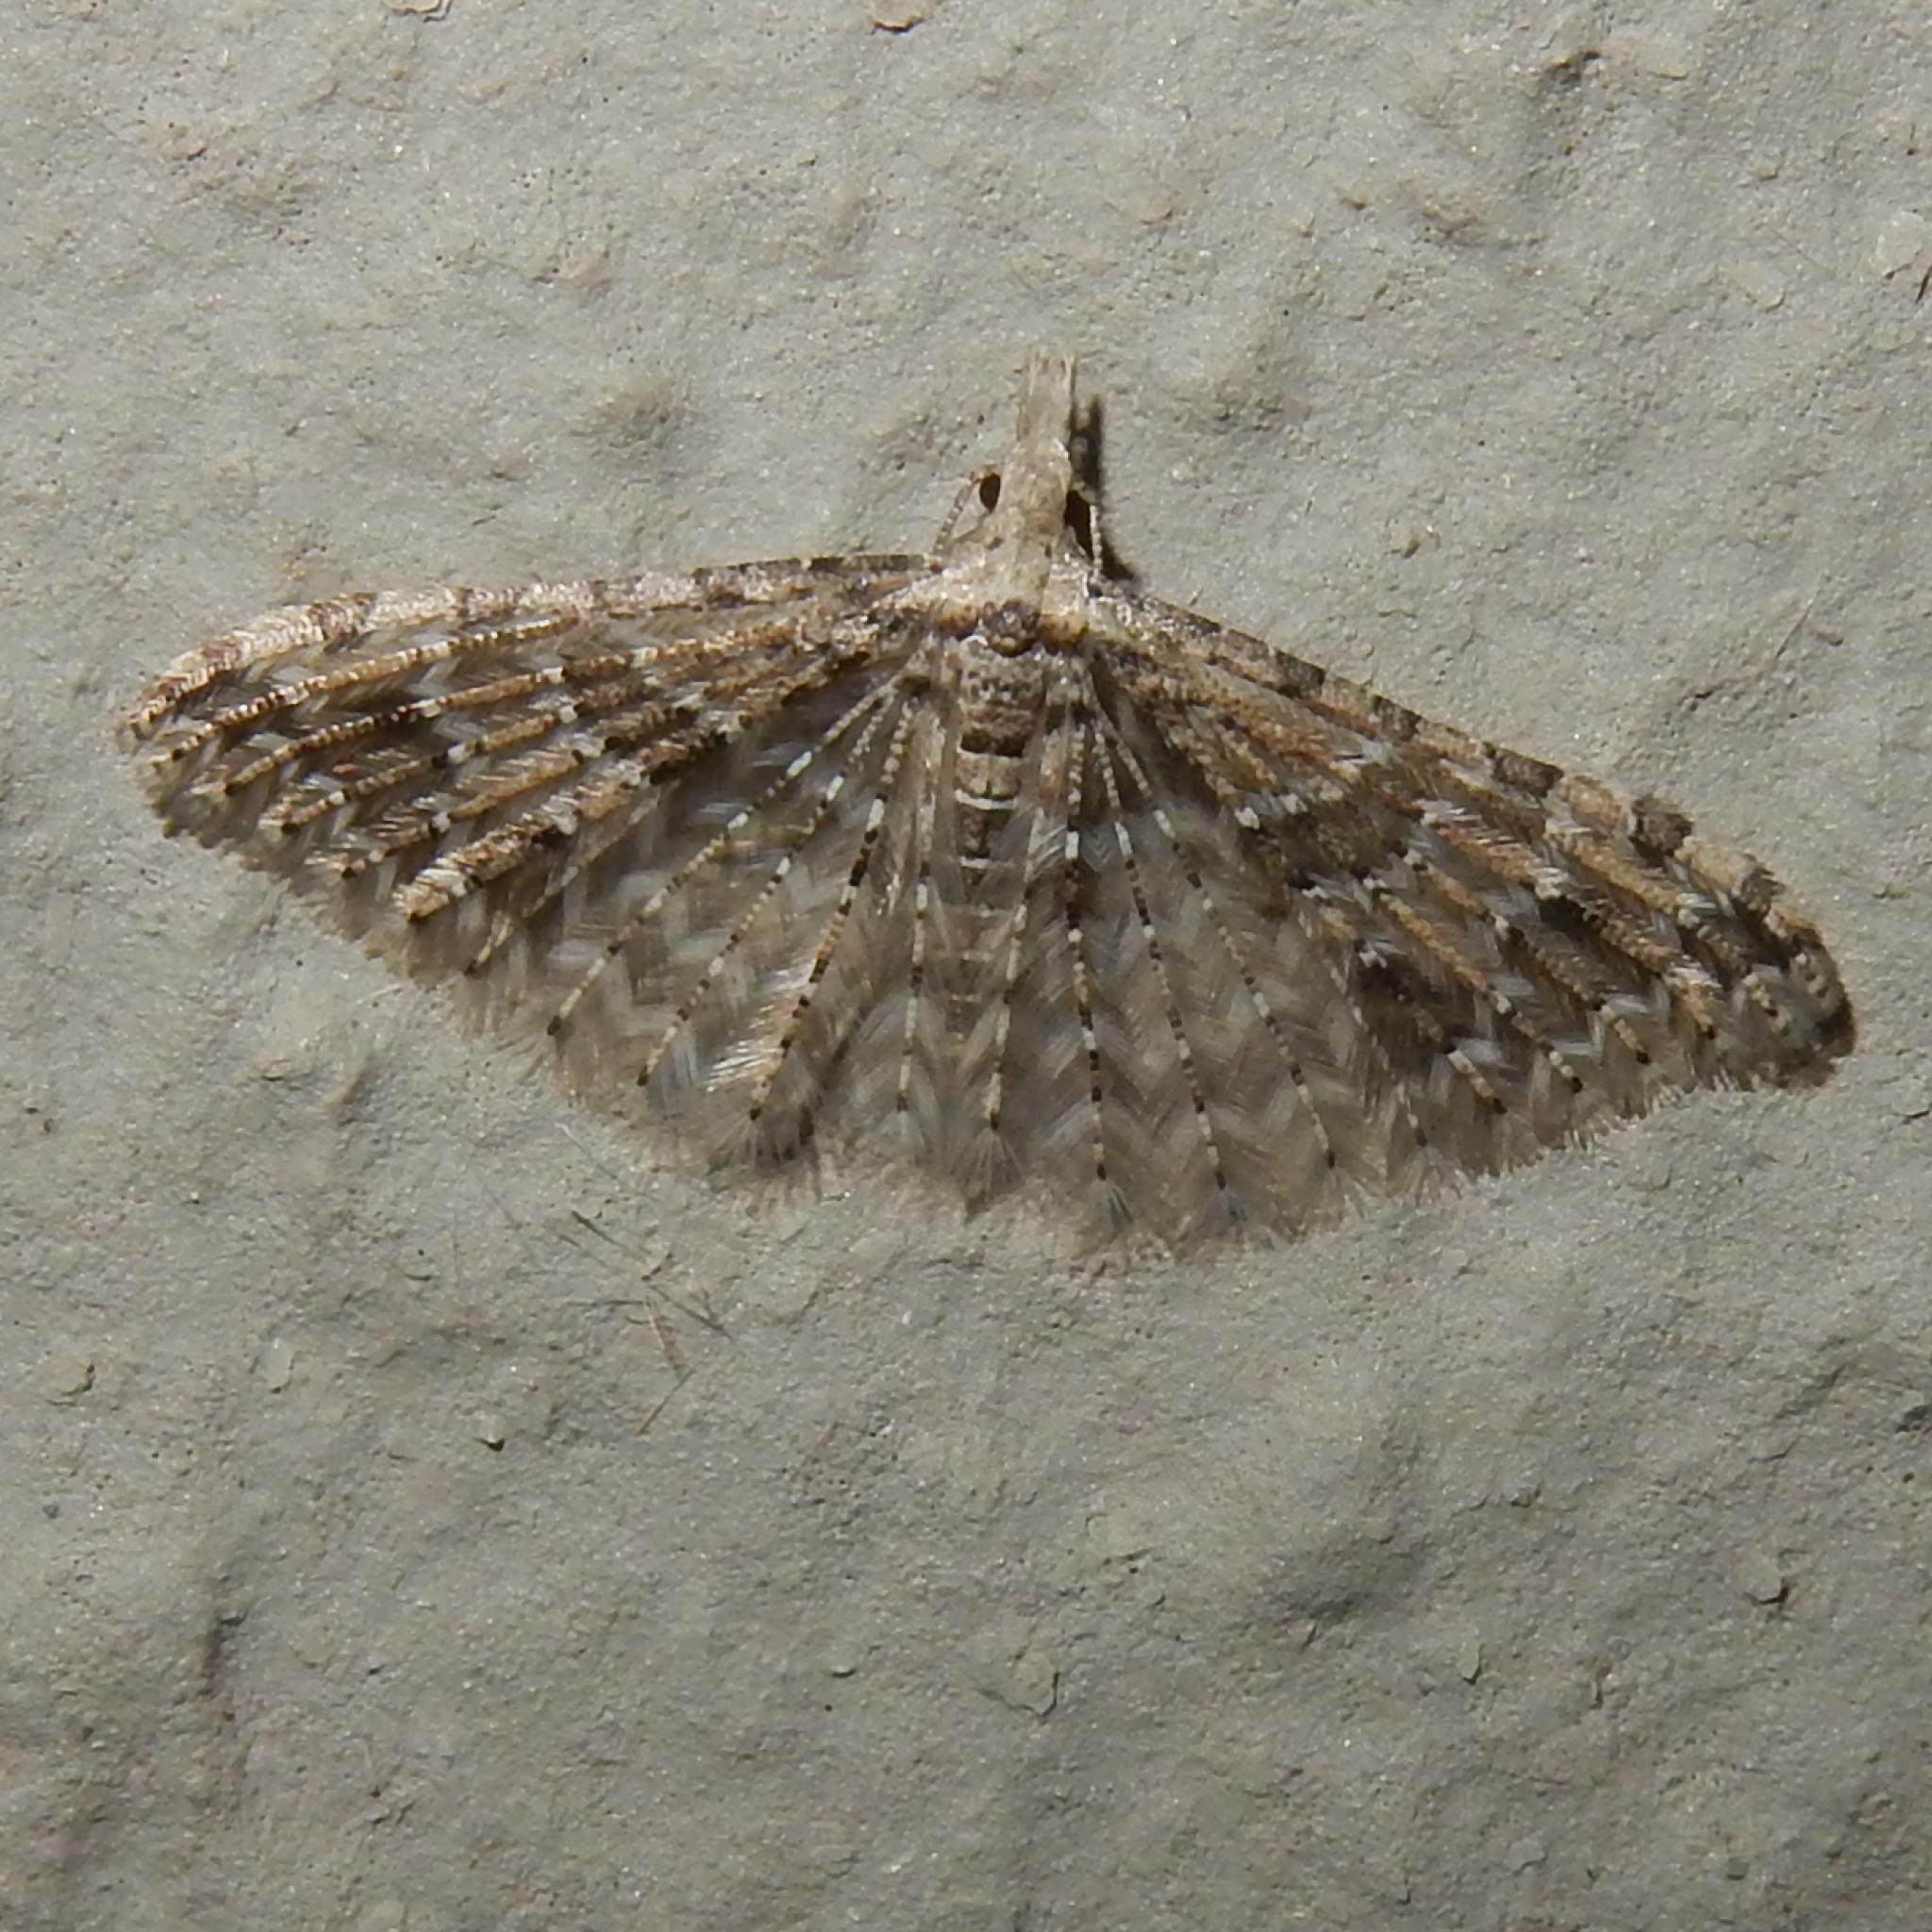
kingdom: Animalia
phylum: Arthropoda
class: Insecta
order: Lepidoptera
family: Alucitidae
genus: Alucita
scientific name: Alucita spicifera
